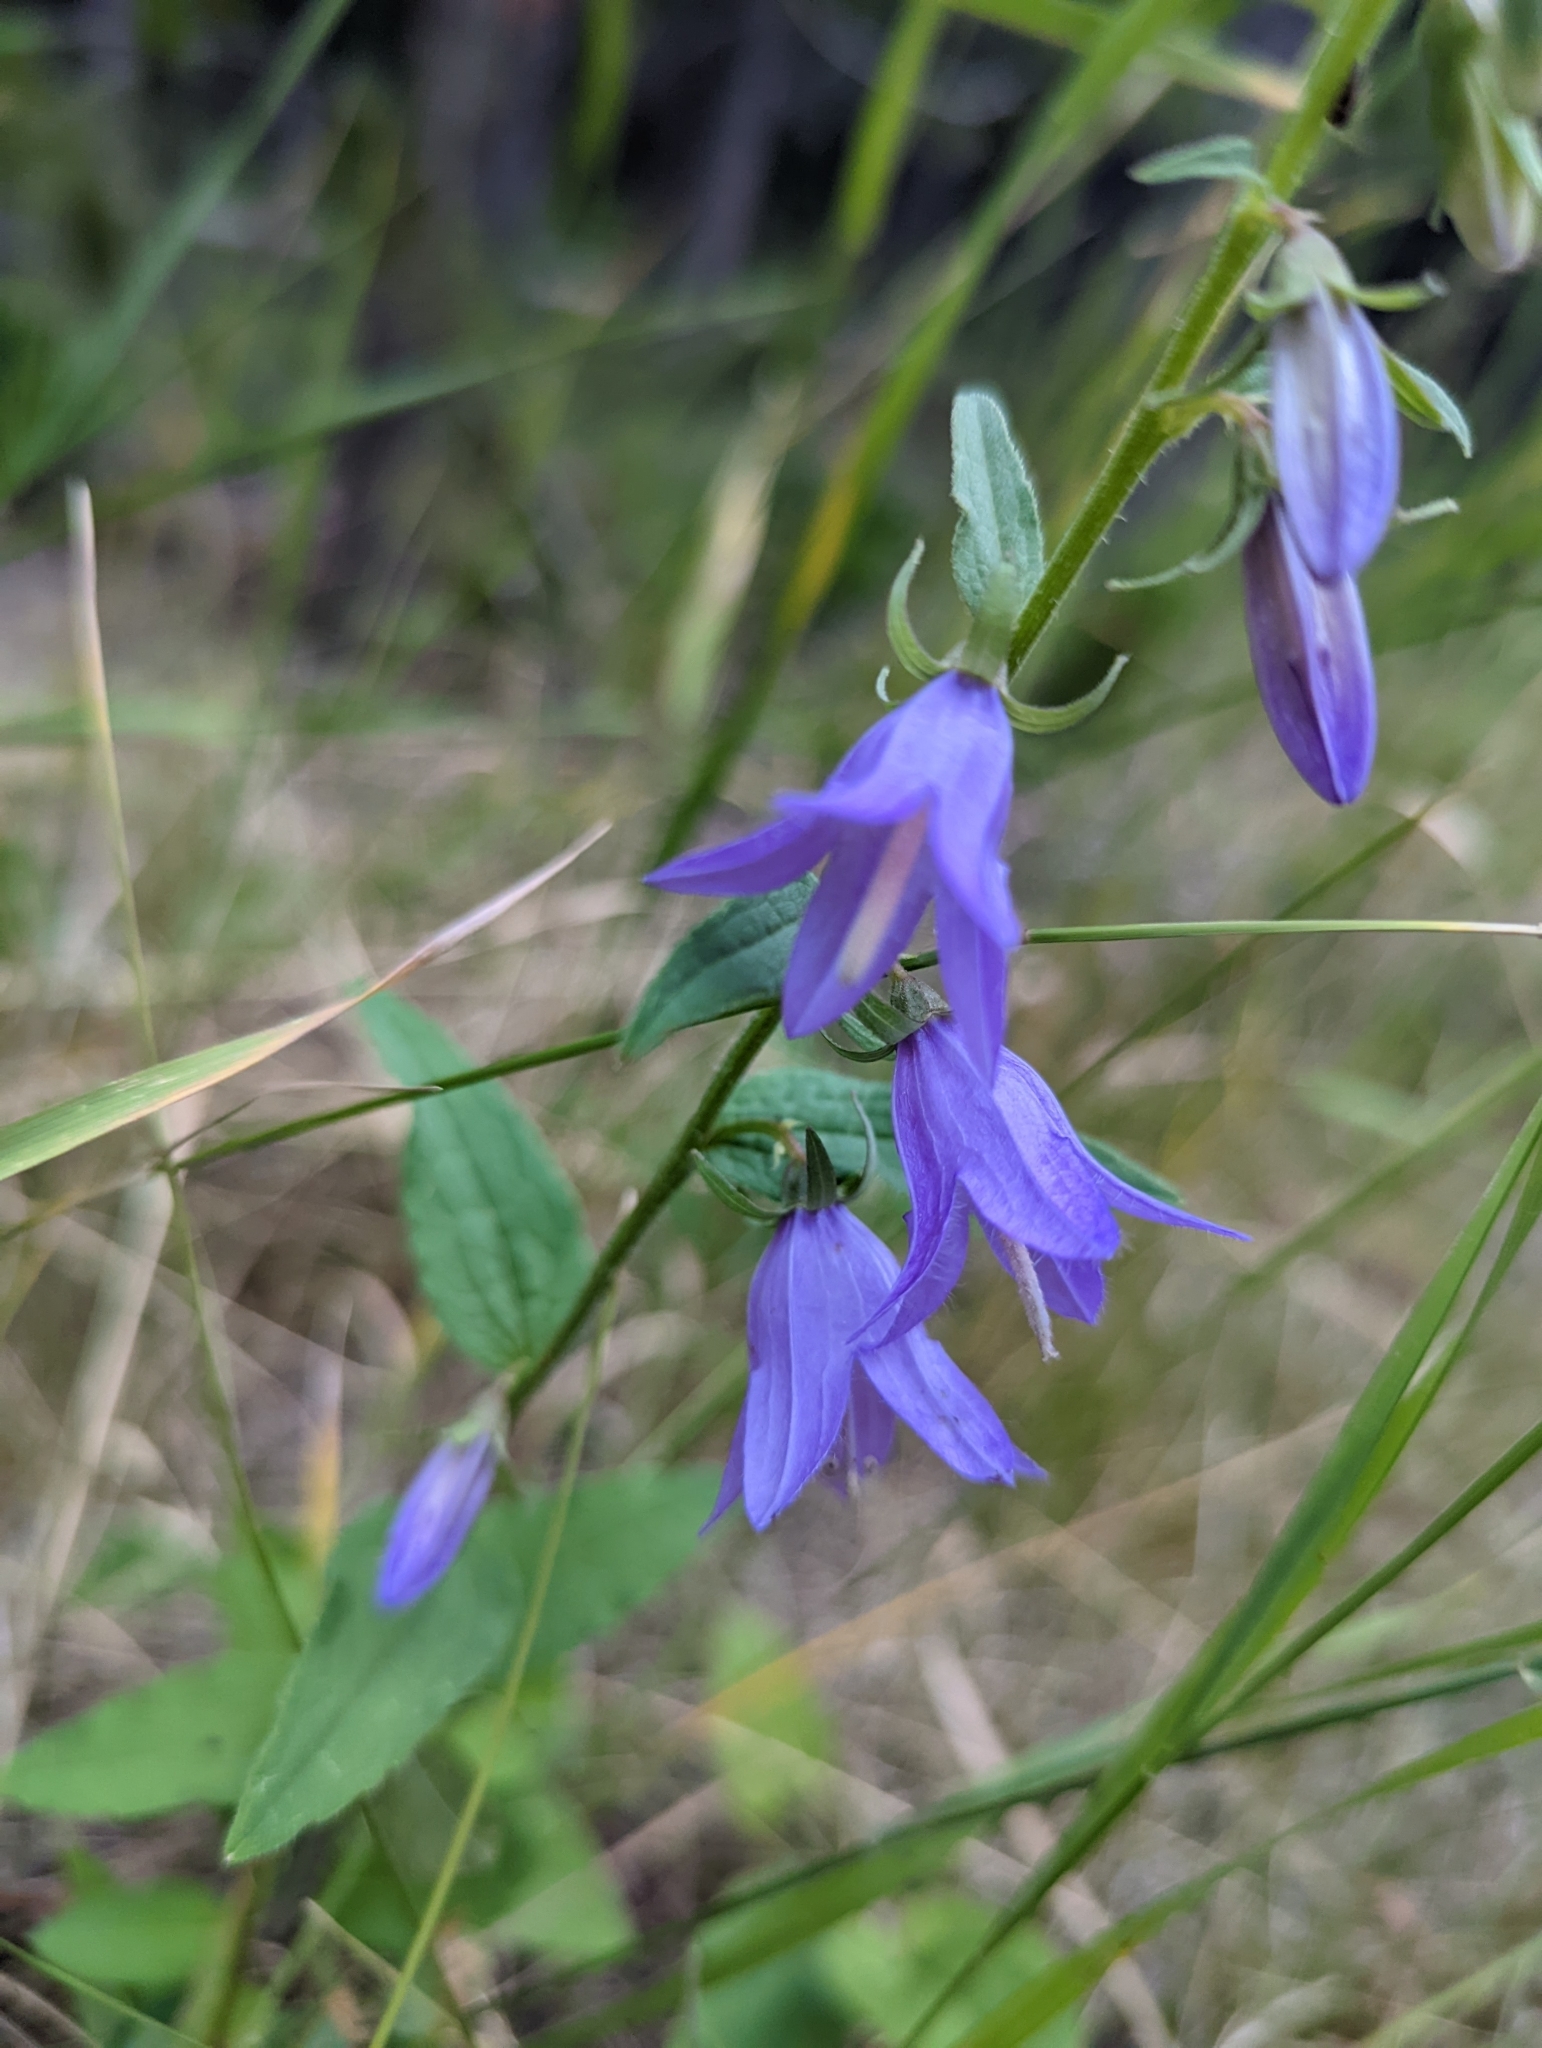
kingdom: Plantae
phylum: Tracheophyta
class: Magnoliopsida
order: Asterales
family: Campanulaceae
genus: Campanula
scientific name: Campanula rapunculoides
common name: Creeping bellflower
